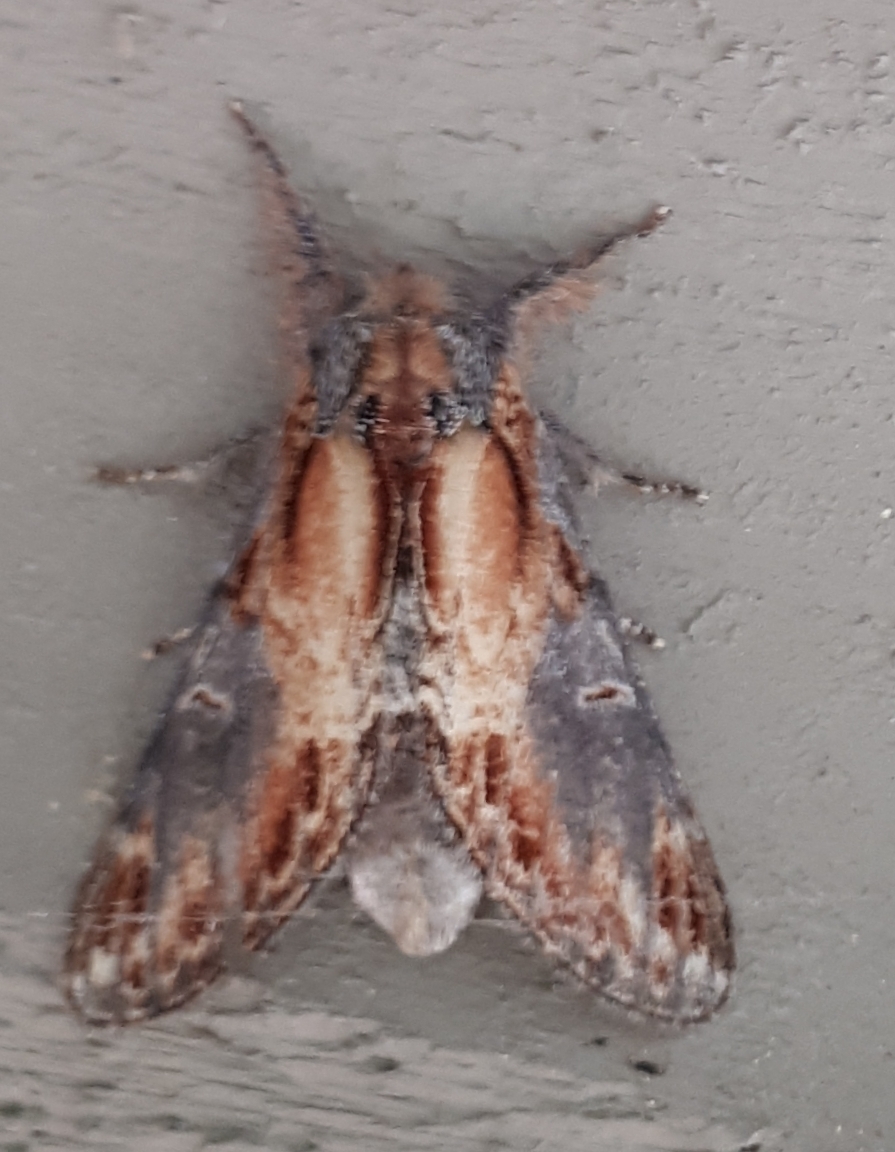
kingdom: Animalia
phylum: Arthropoda
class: Insecta
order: Lepidoptera
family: Notodontidae
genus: Notodonta
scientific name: Notodonta scitipennis
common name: Finned-willow prominent moth
